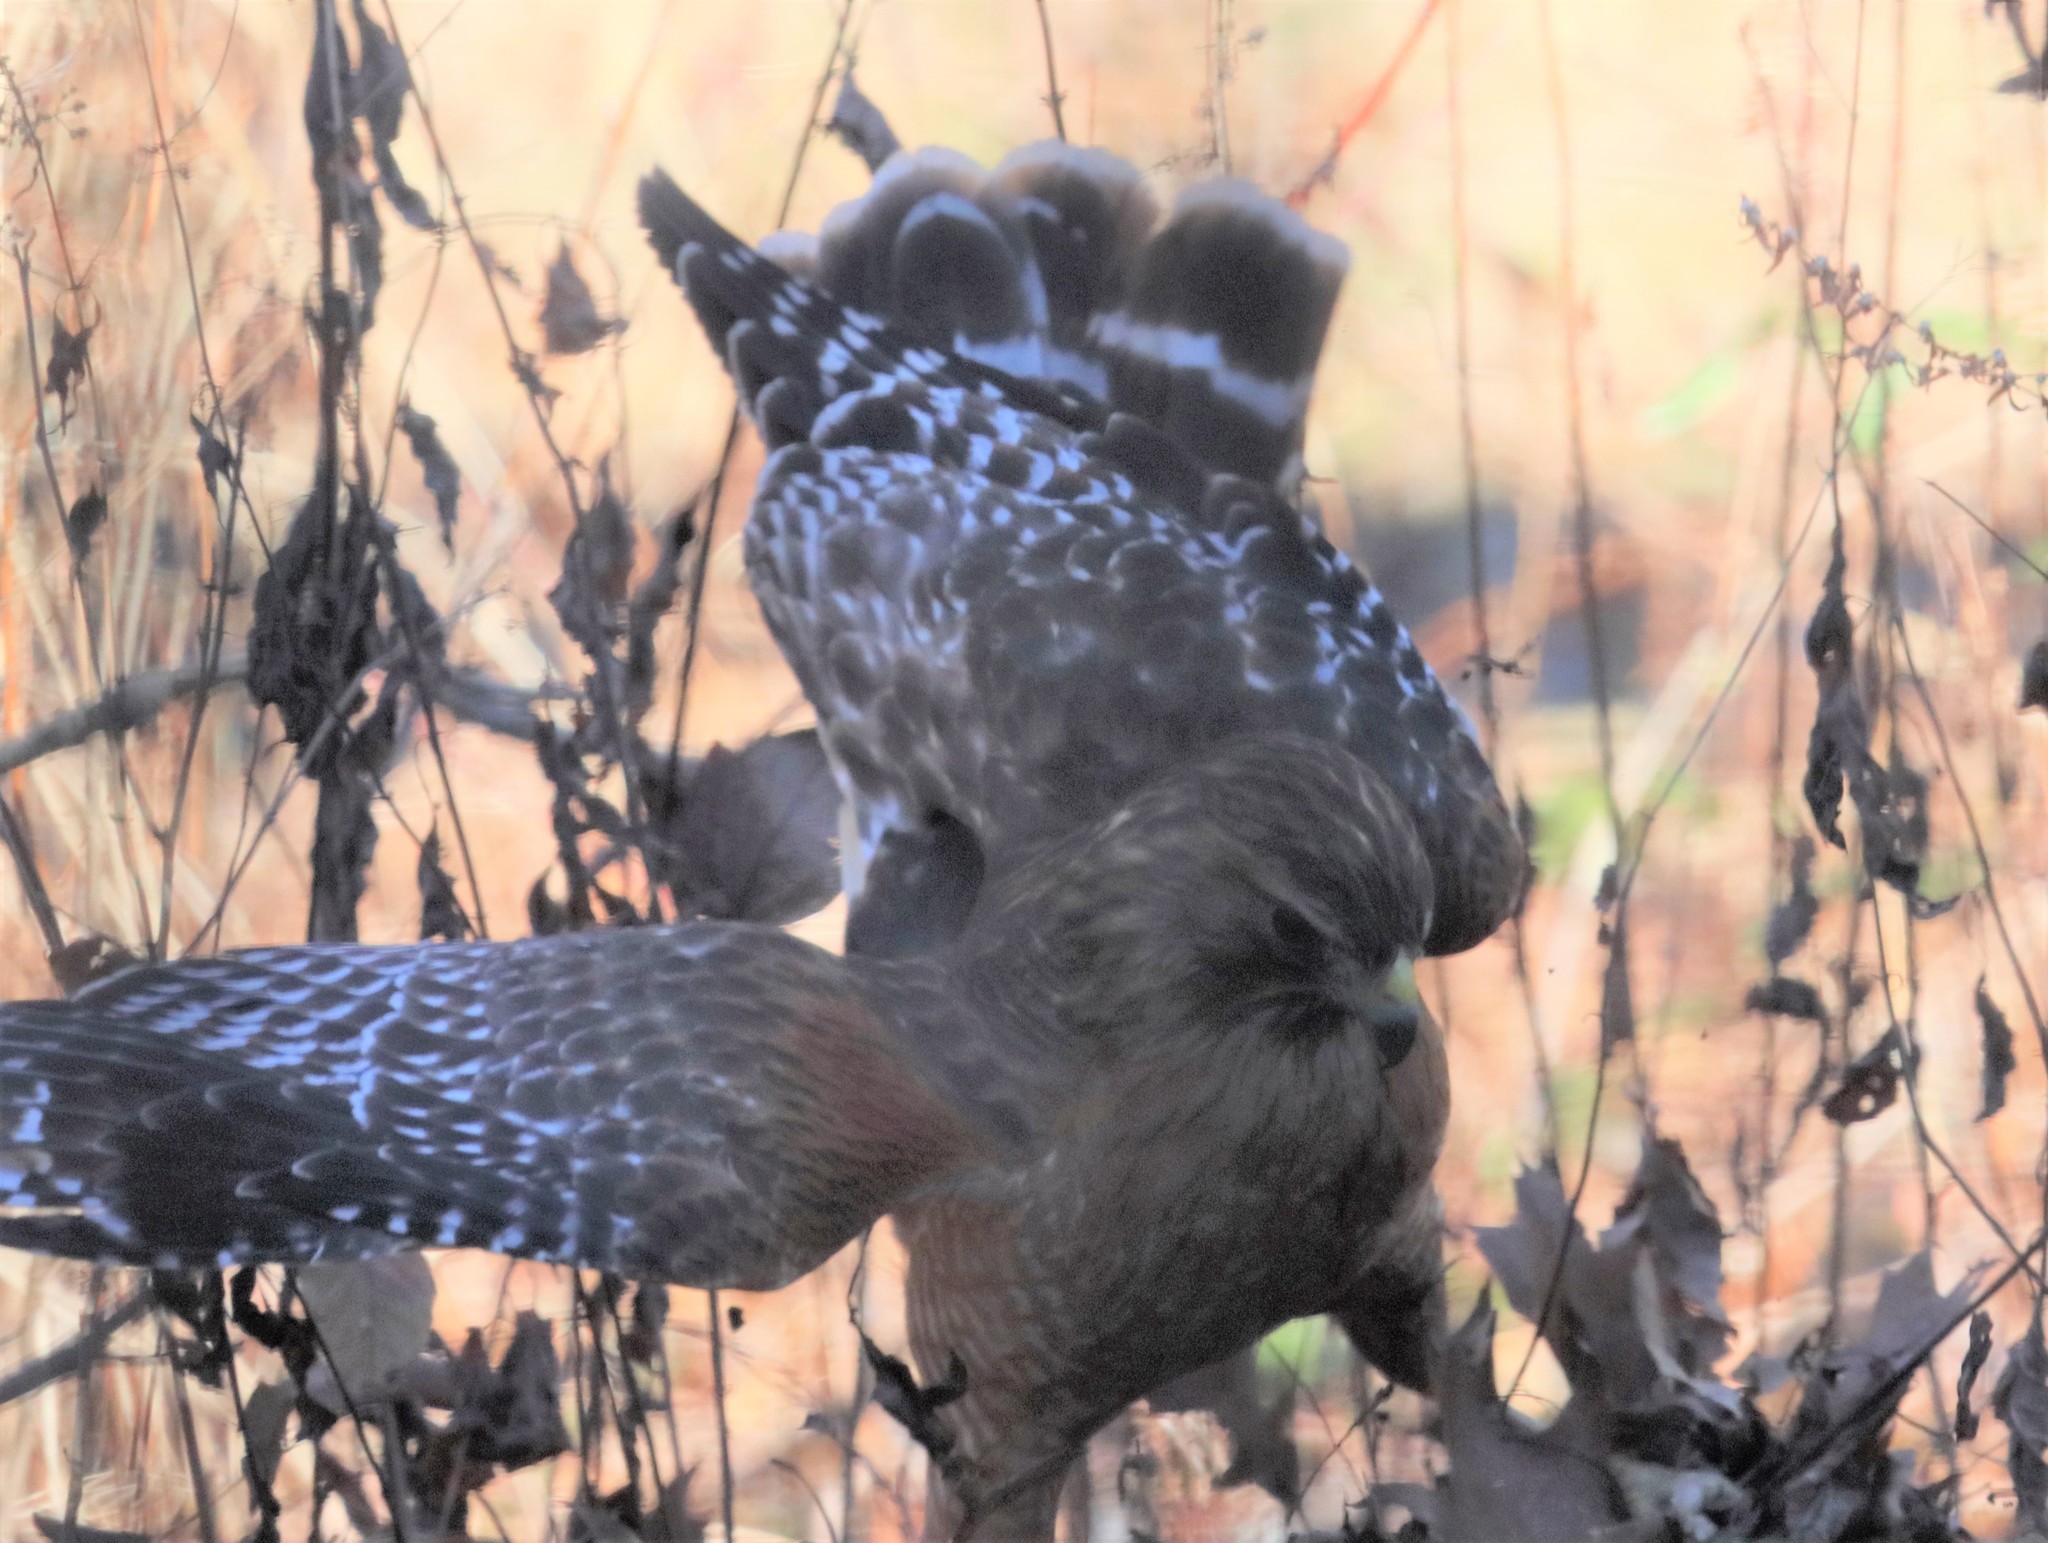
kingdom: Animalia
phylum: Chordata
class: Aves
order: Accipitriformes
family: Accipitridae
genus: Buteo
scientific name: Buteo lineatus
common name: Red-shouldered hawk
